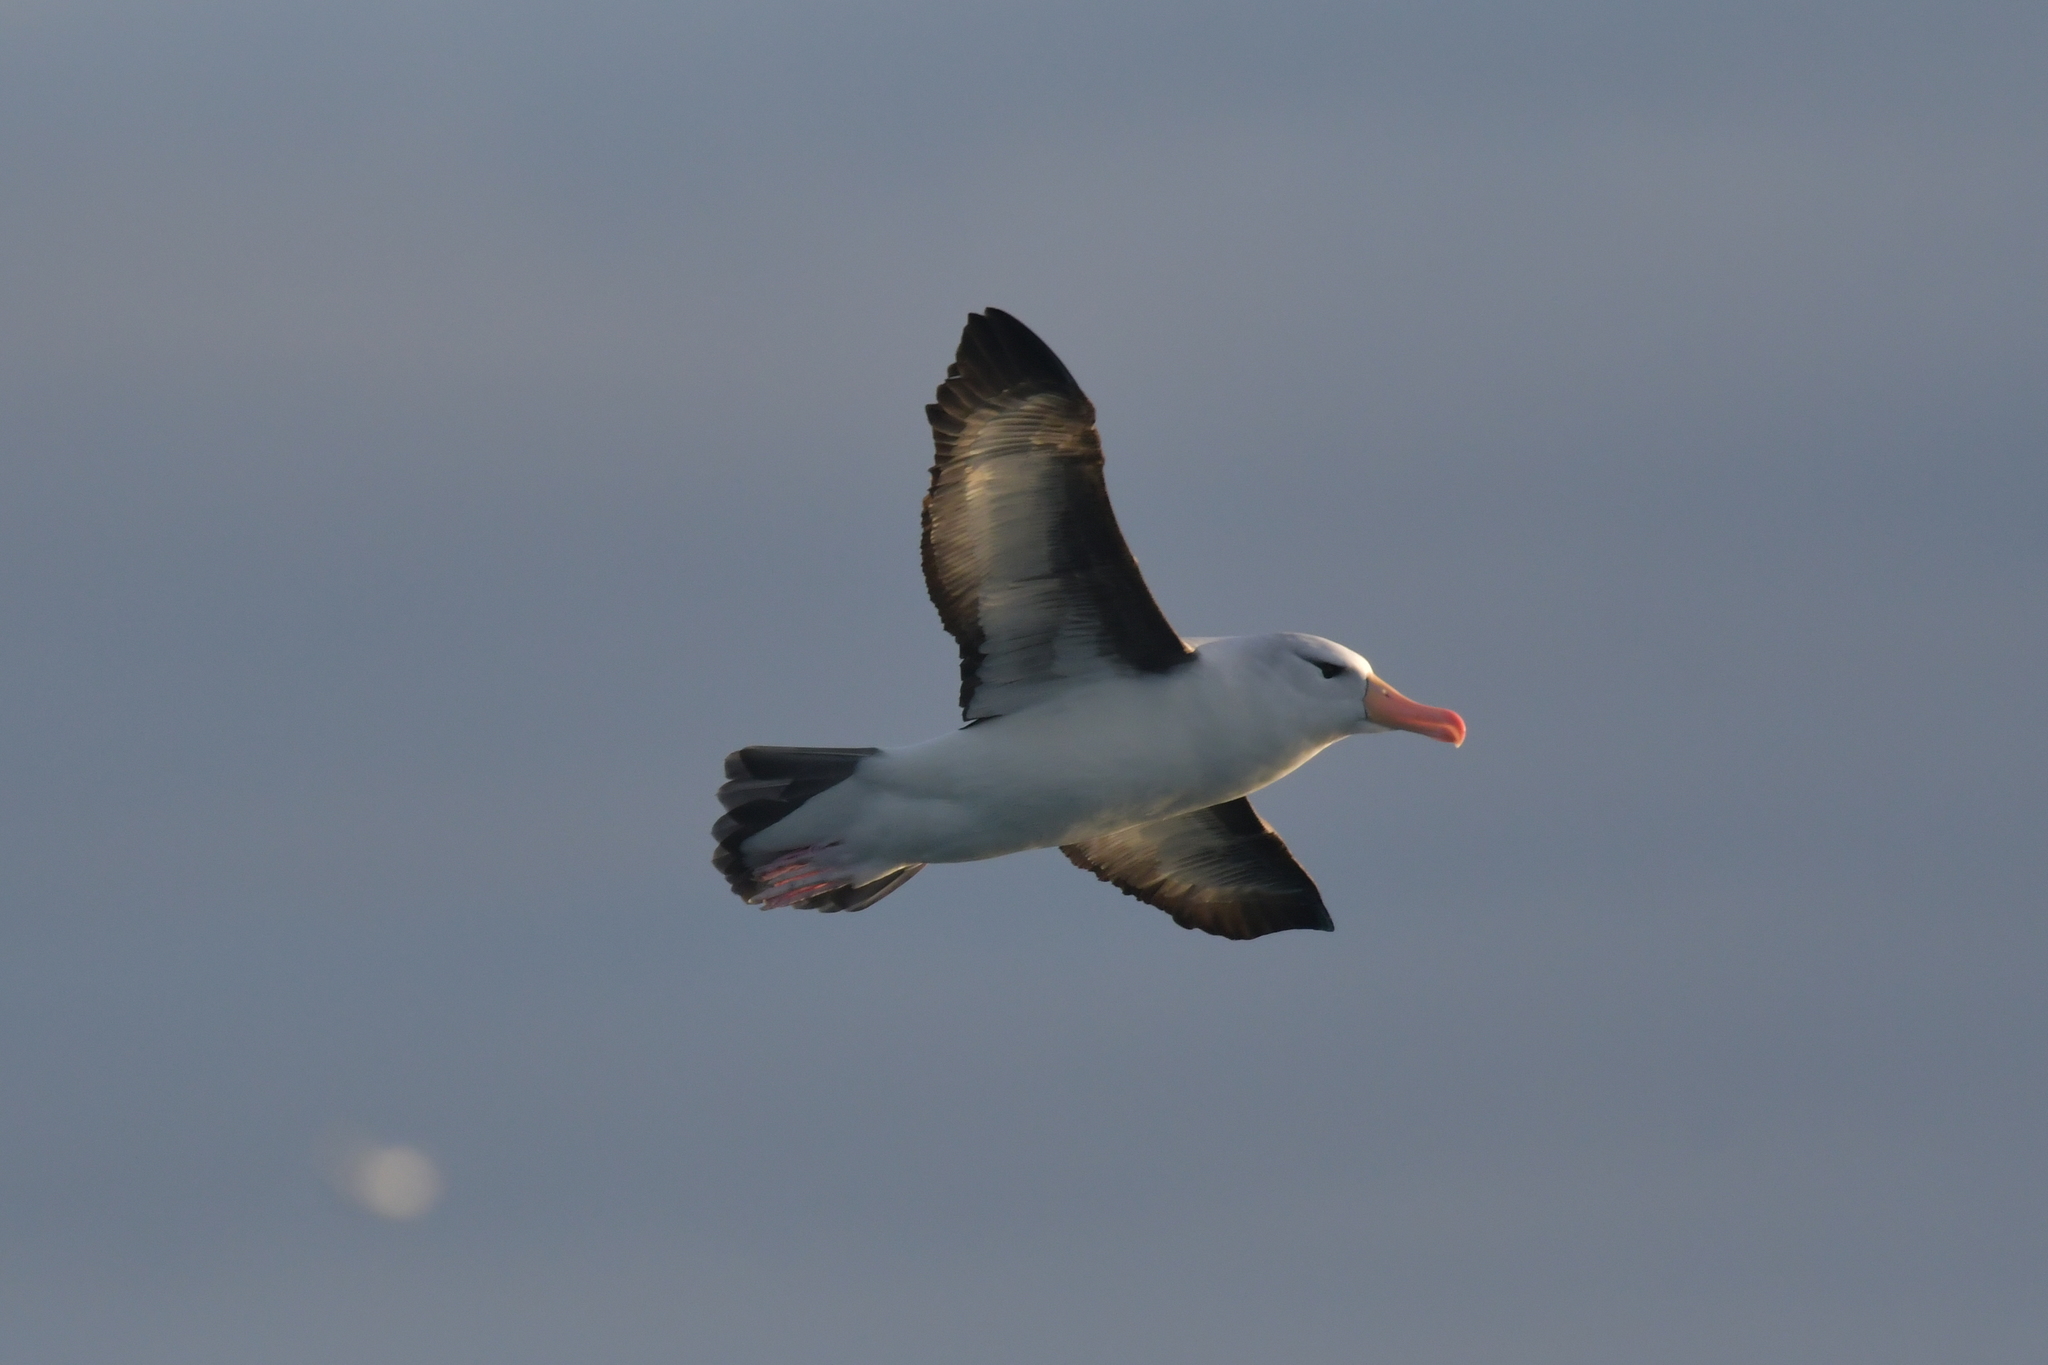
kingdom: Animalia
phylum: Chordata
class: Aves
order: Procellariiformes
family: Diomedeidae
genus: Thalassarche
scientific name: Thalassarche melanophris
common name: Black-browed albatross
